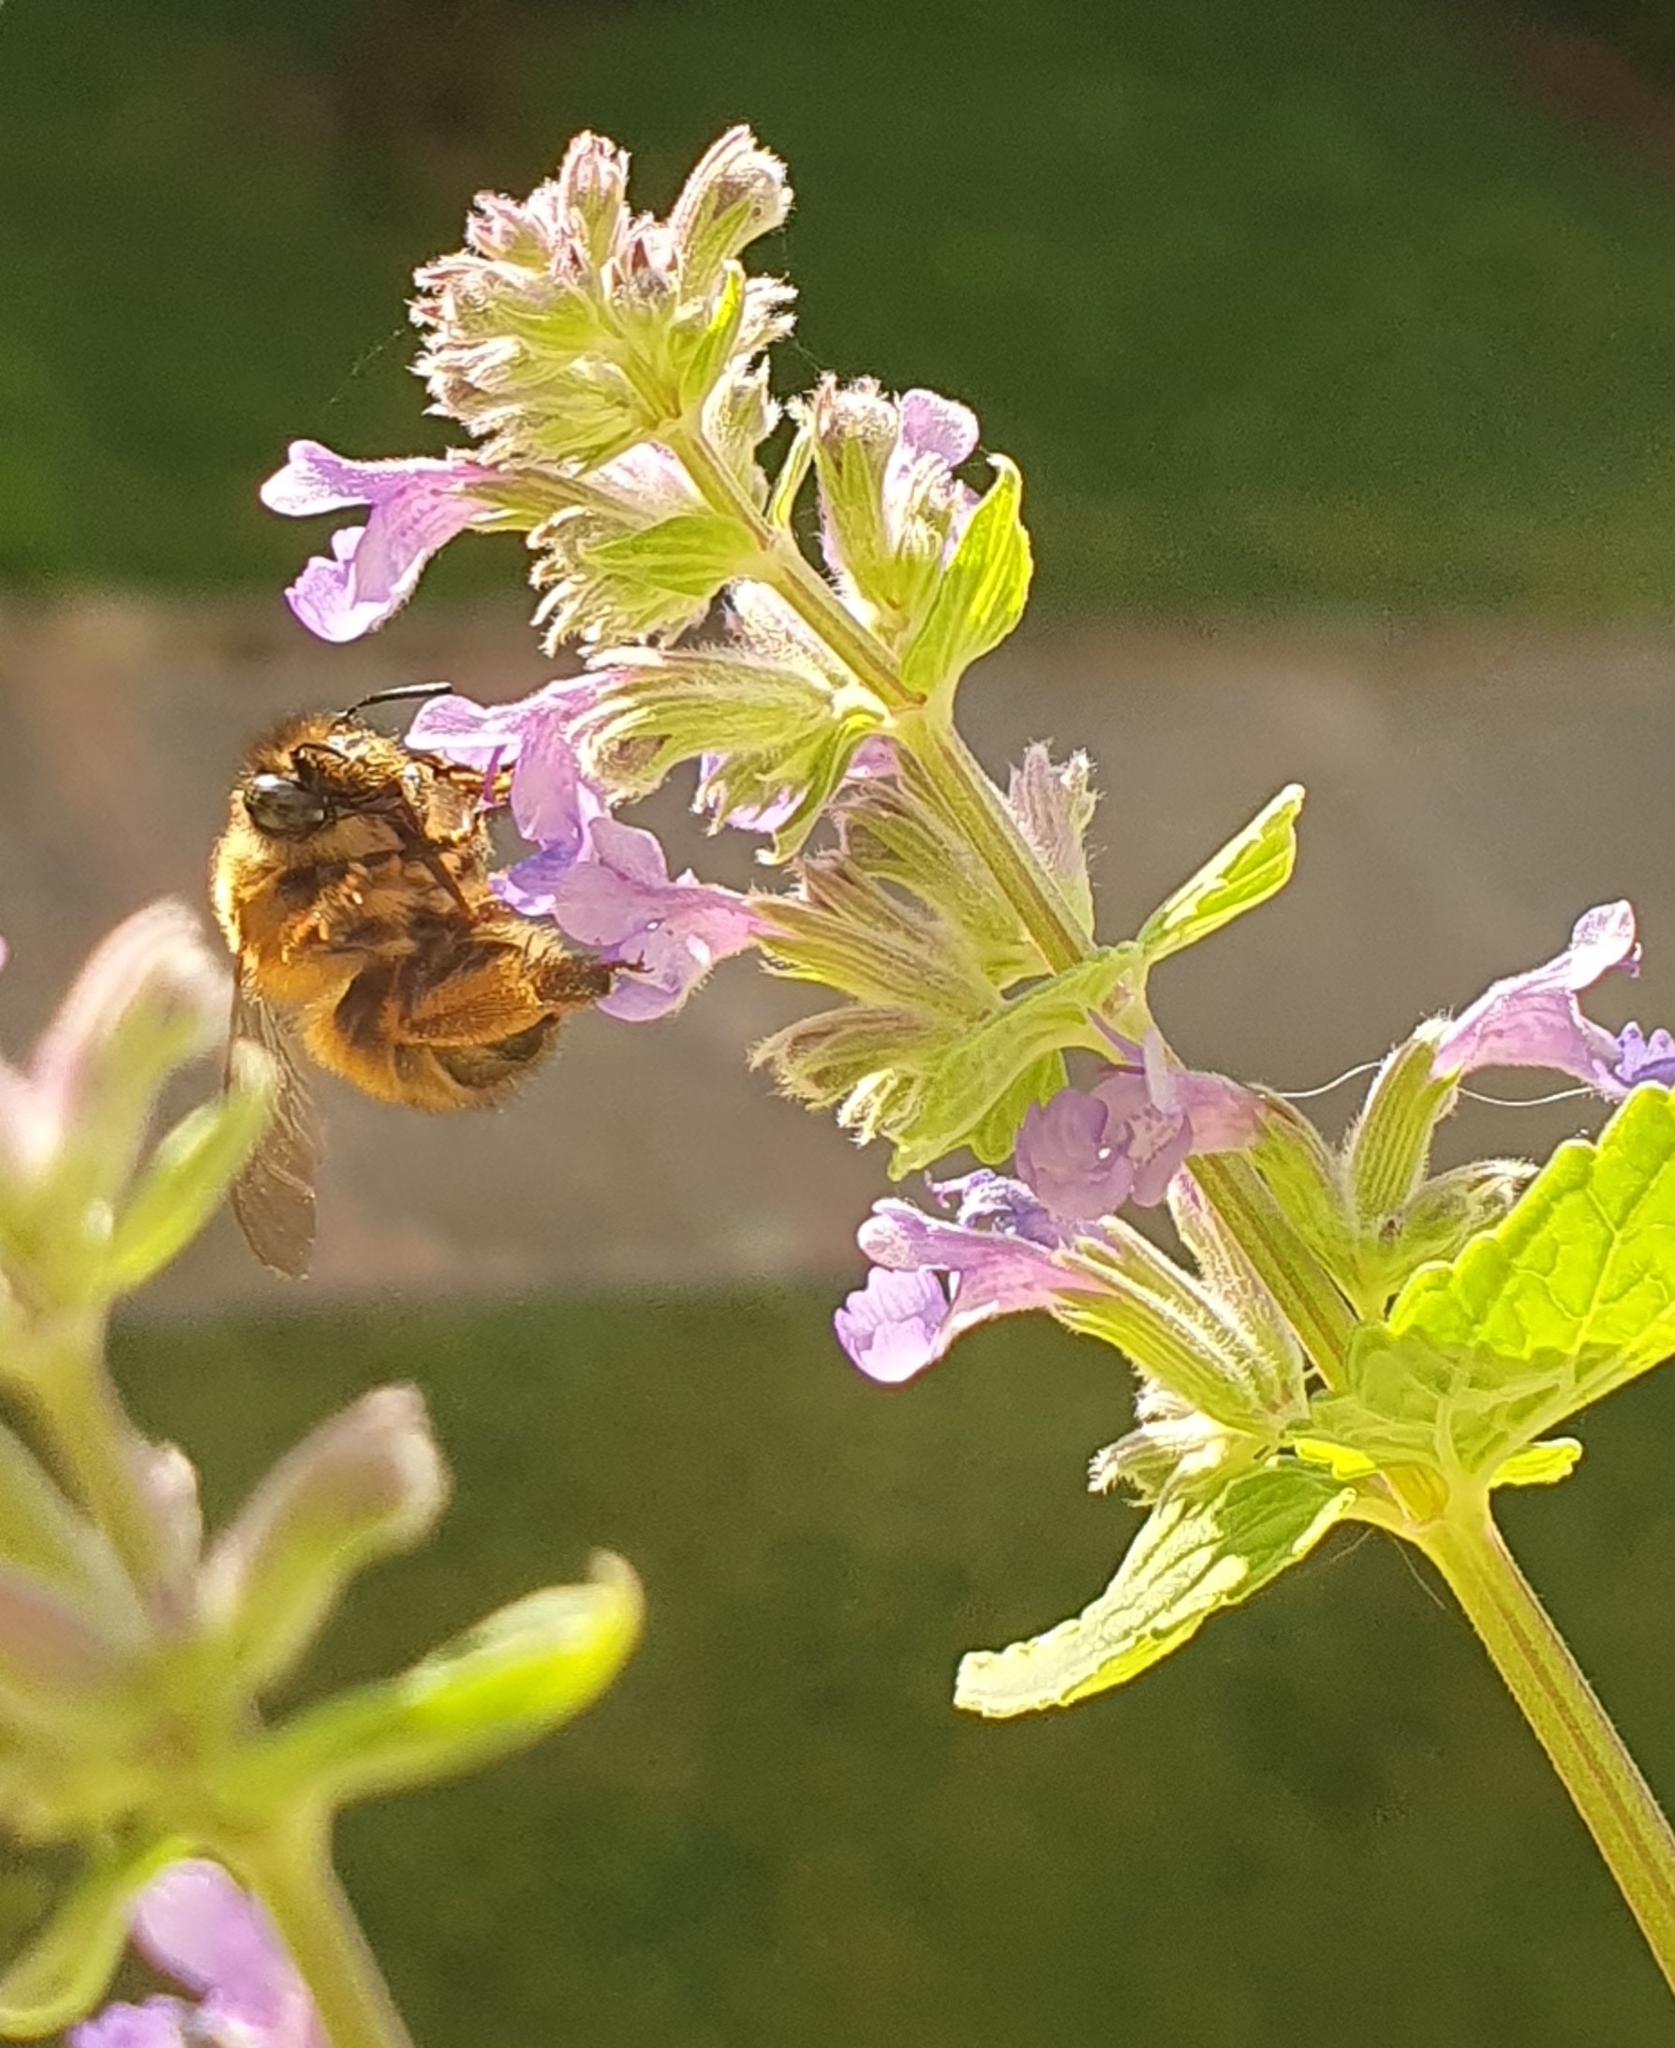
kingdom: Animalia
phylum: Arthropoda
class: Insecta
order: Hymenoptera
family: Apidae
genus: Anthophora
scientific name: Anthophora plumipes
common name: Hairy-footed flower bee
